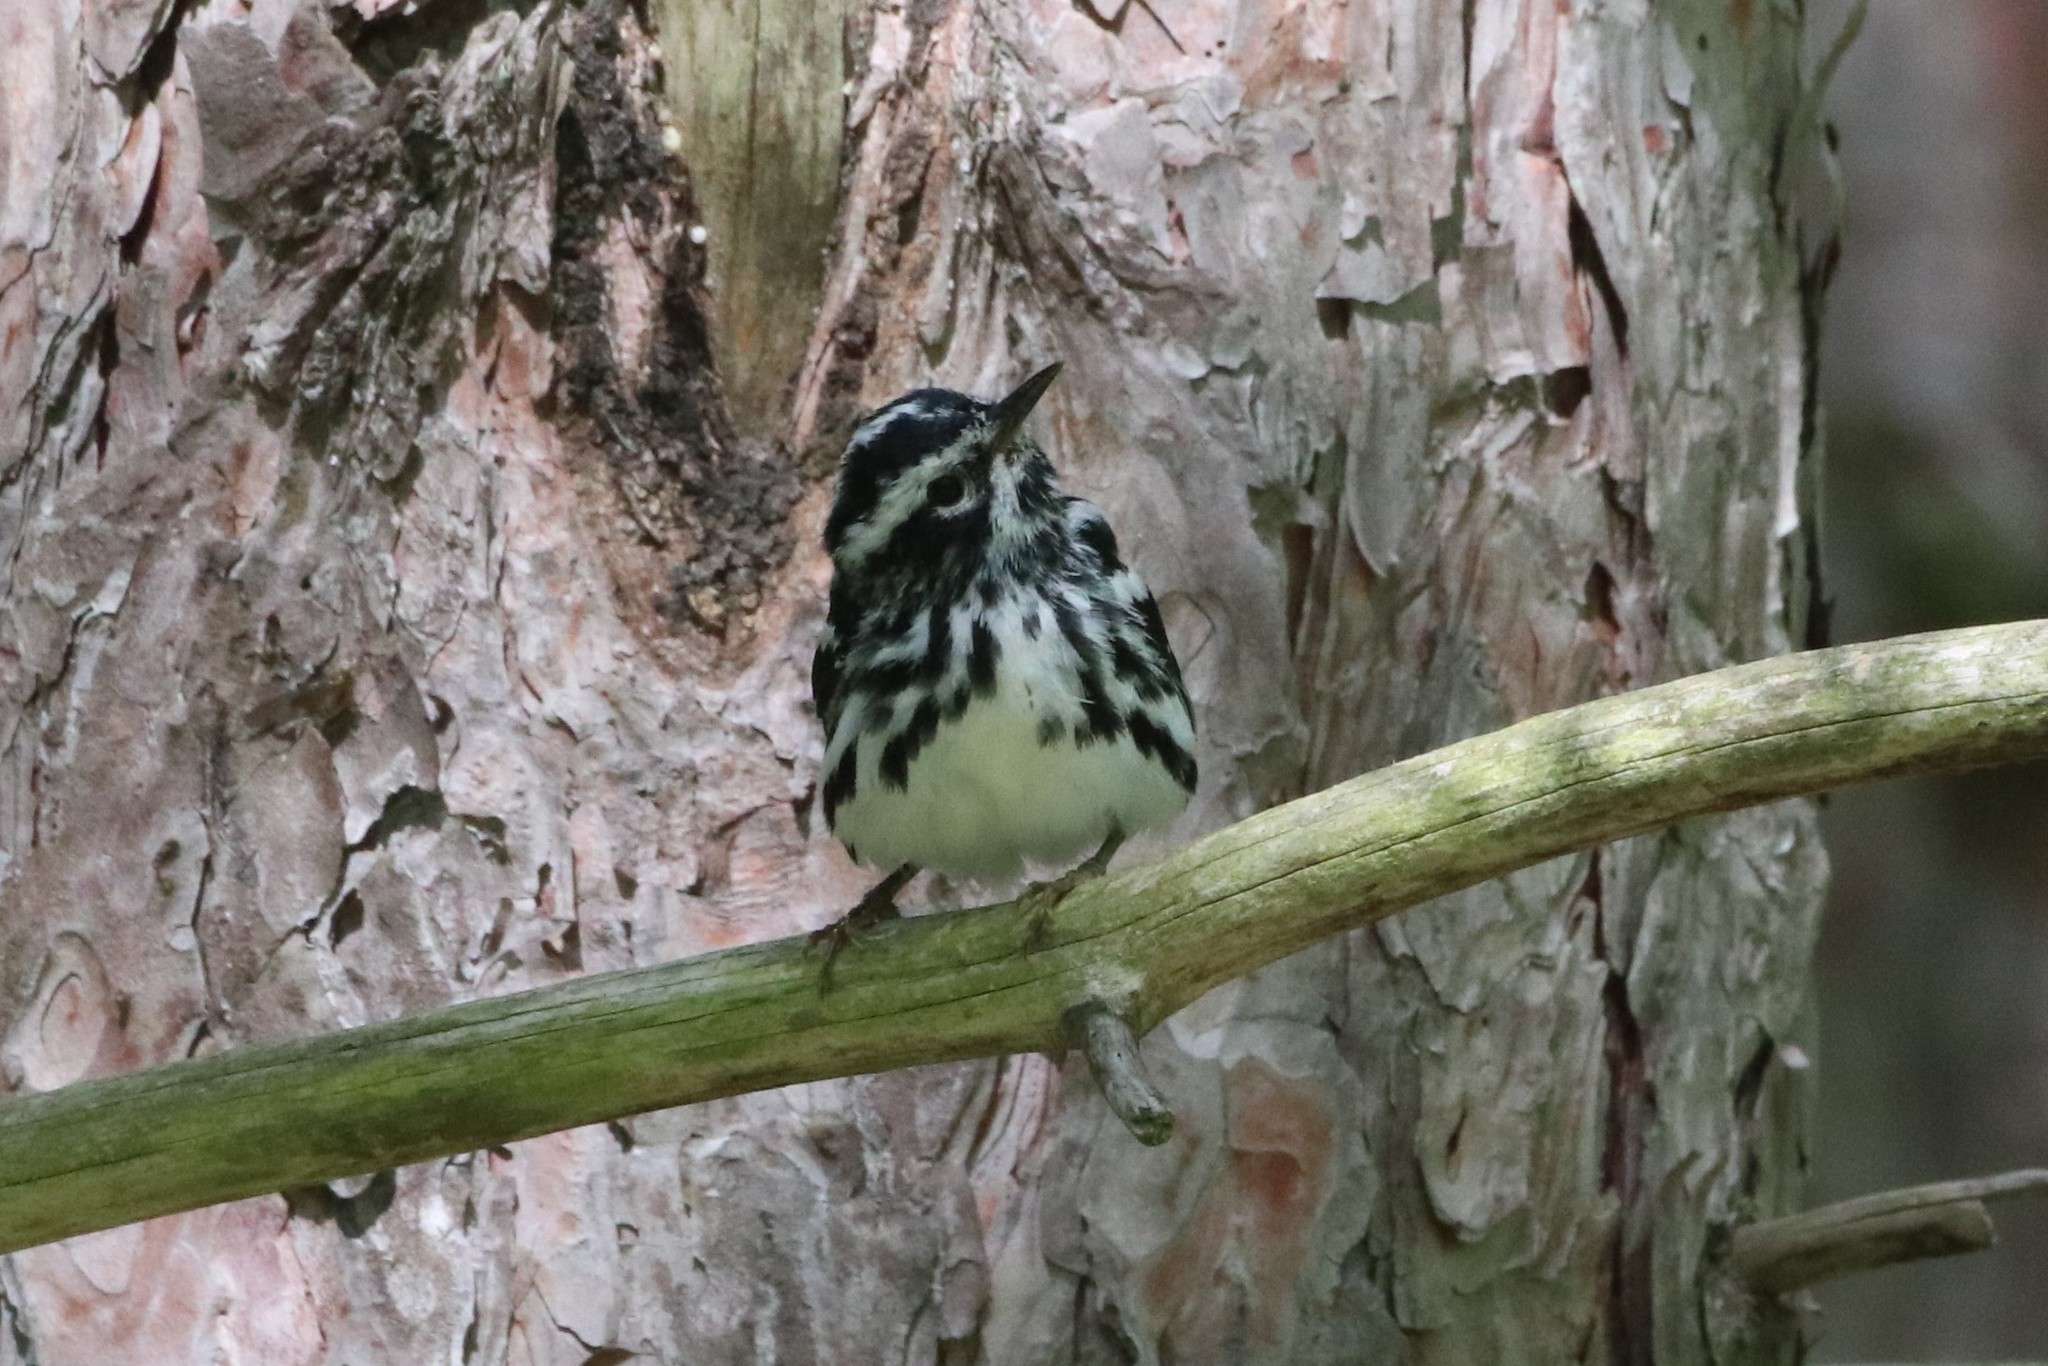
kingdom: Animalia
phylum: Chordata
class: Aves
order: Passeriformes
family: Parulidae
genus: Mniotilta
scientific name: Mniotilta varia
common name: Black-and-white warbler
